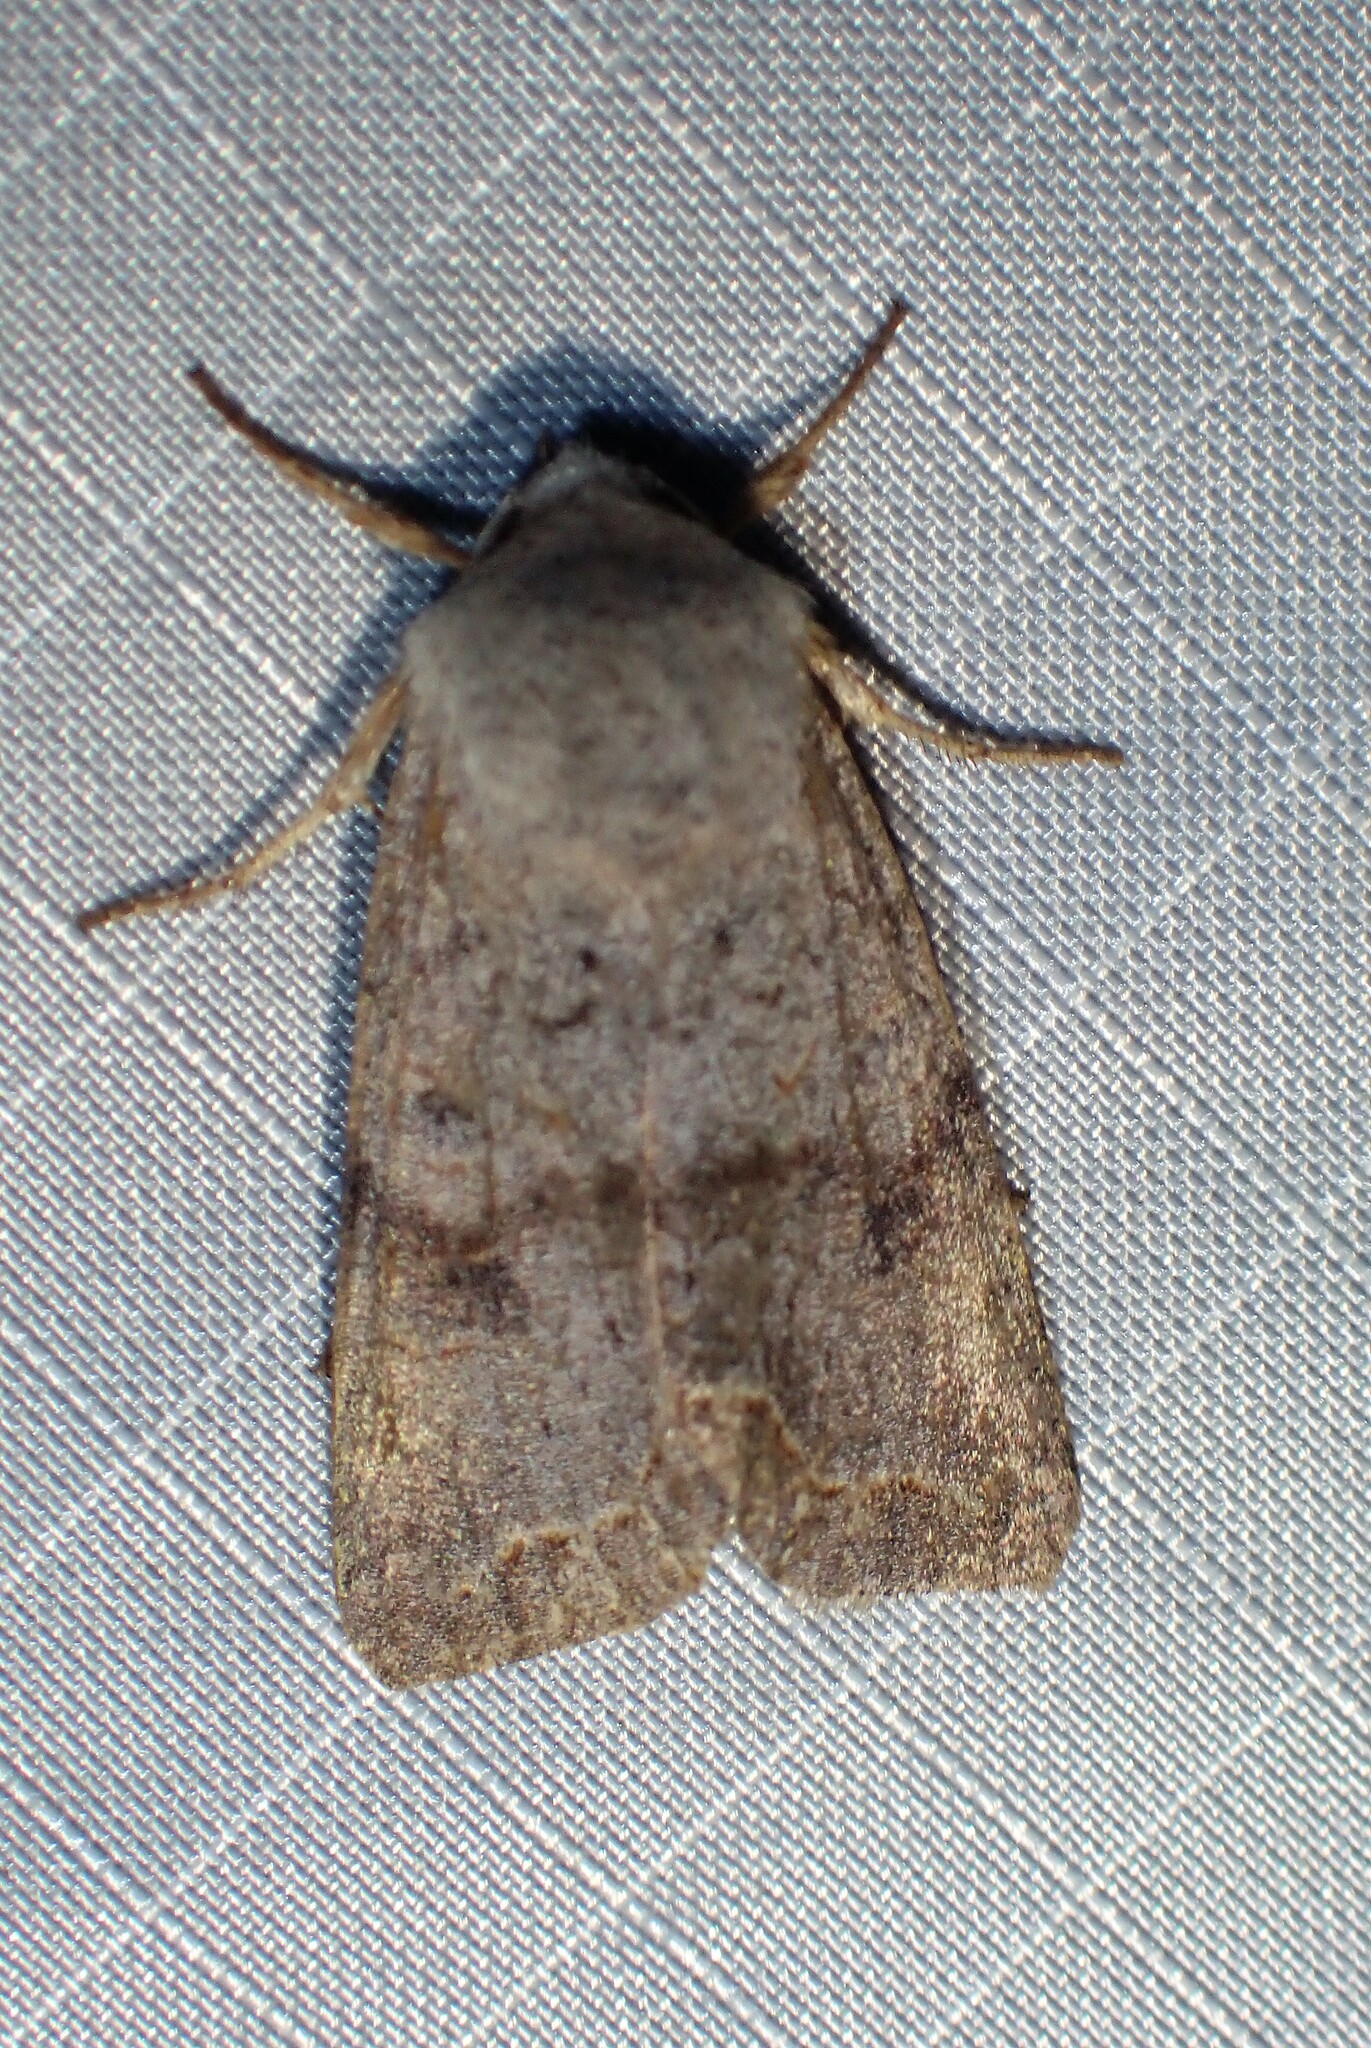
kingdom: Animalia
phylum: Arthropoda
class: Insecta
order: Lepidoptera
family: Noctuidae
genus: Orthosia
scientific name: Orthosia revicta
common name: Rusty whitesided caterpillar
